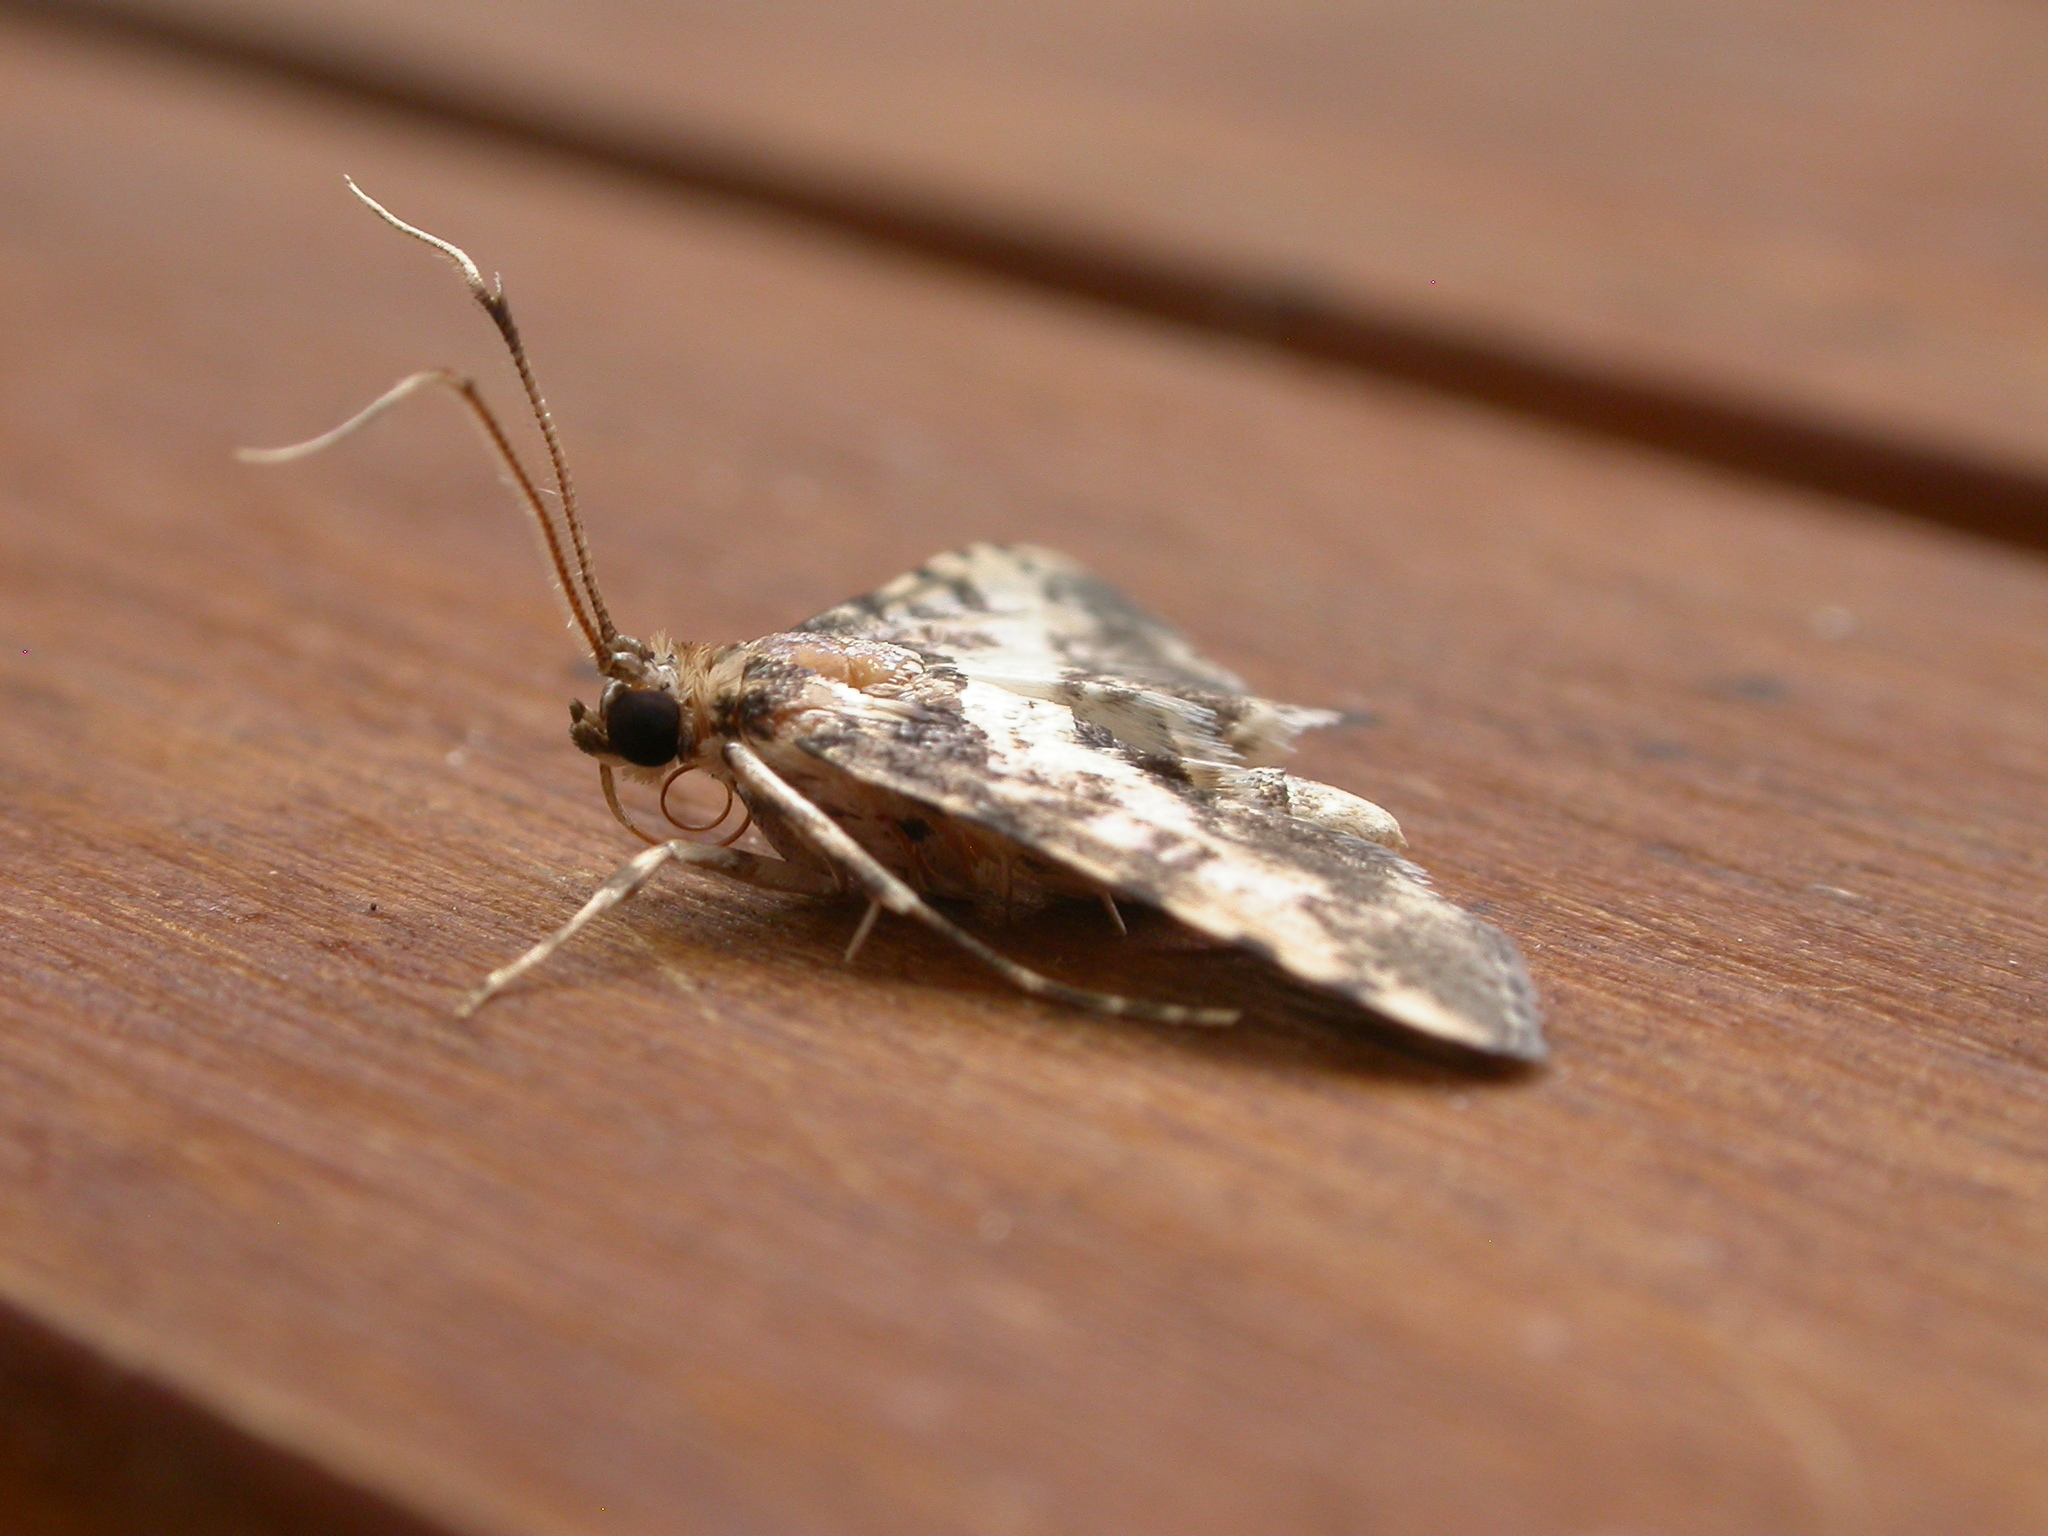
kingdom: Animalia
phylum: Arthropoda
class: Insecta
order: Lepidoptera
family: Crambidae
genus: Nacoleia
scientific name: Nacoleia amphicedalis
